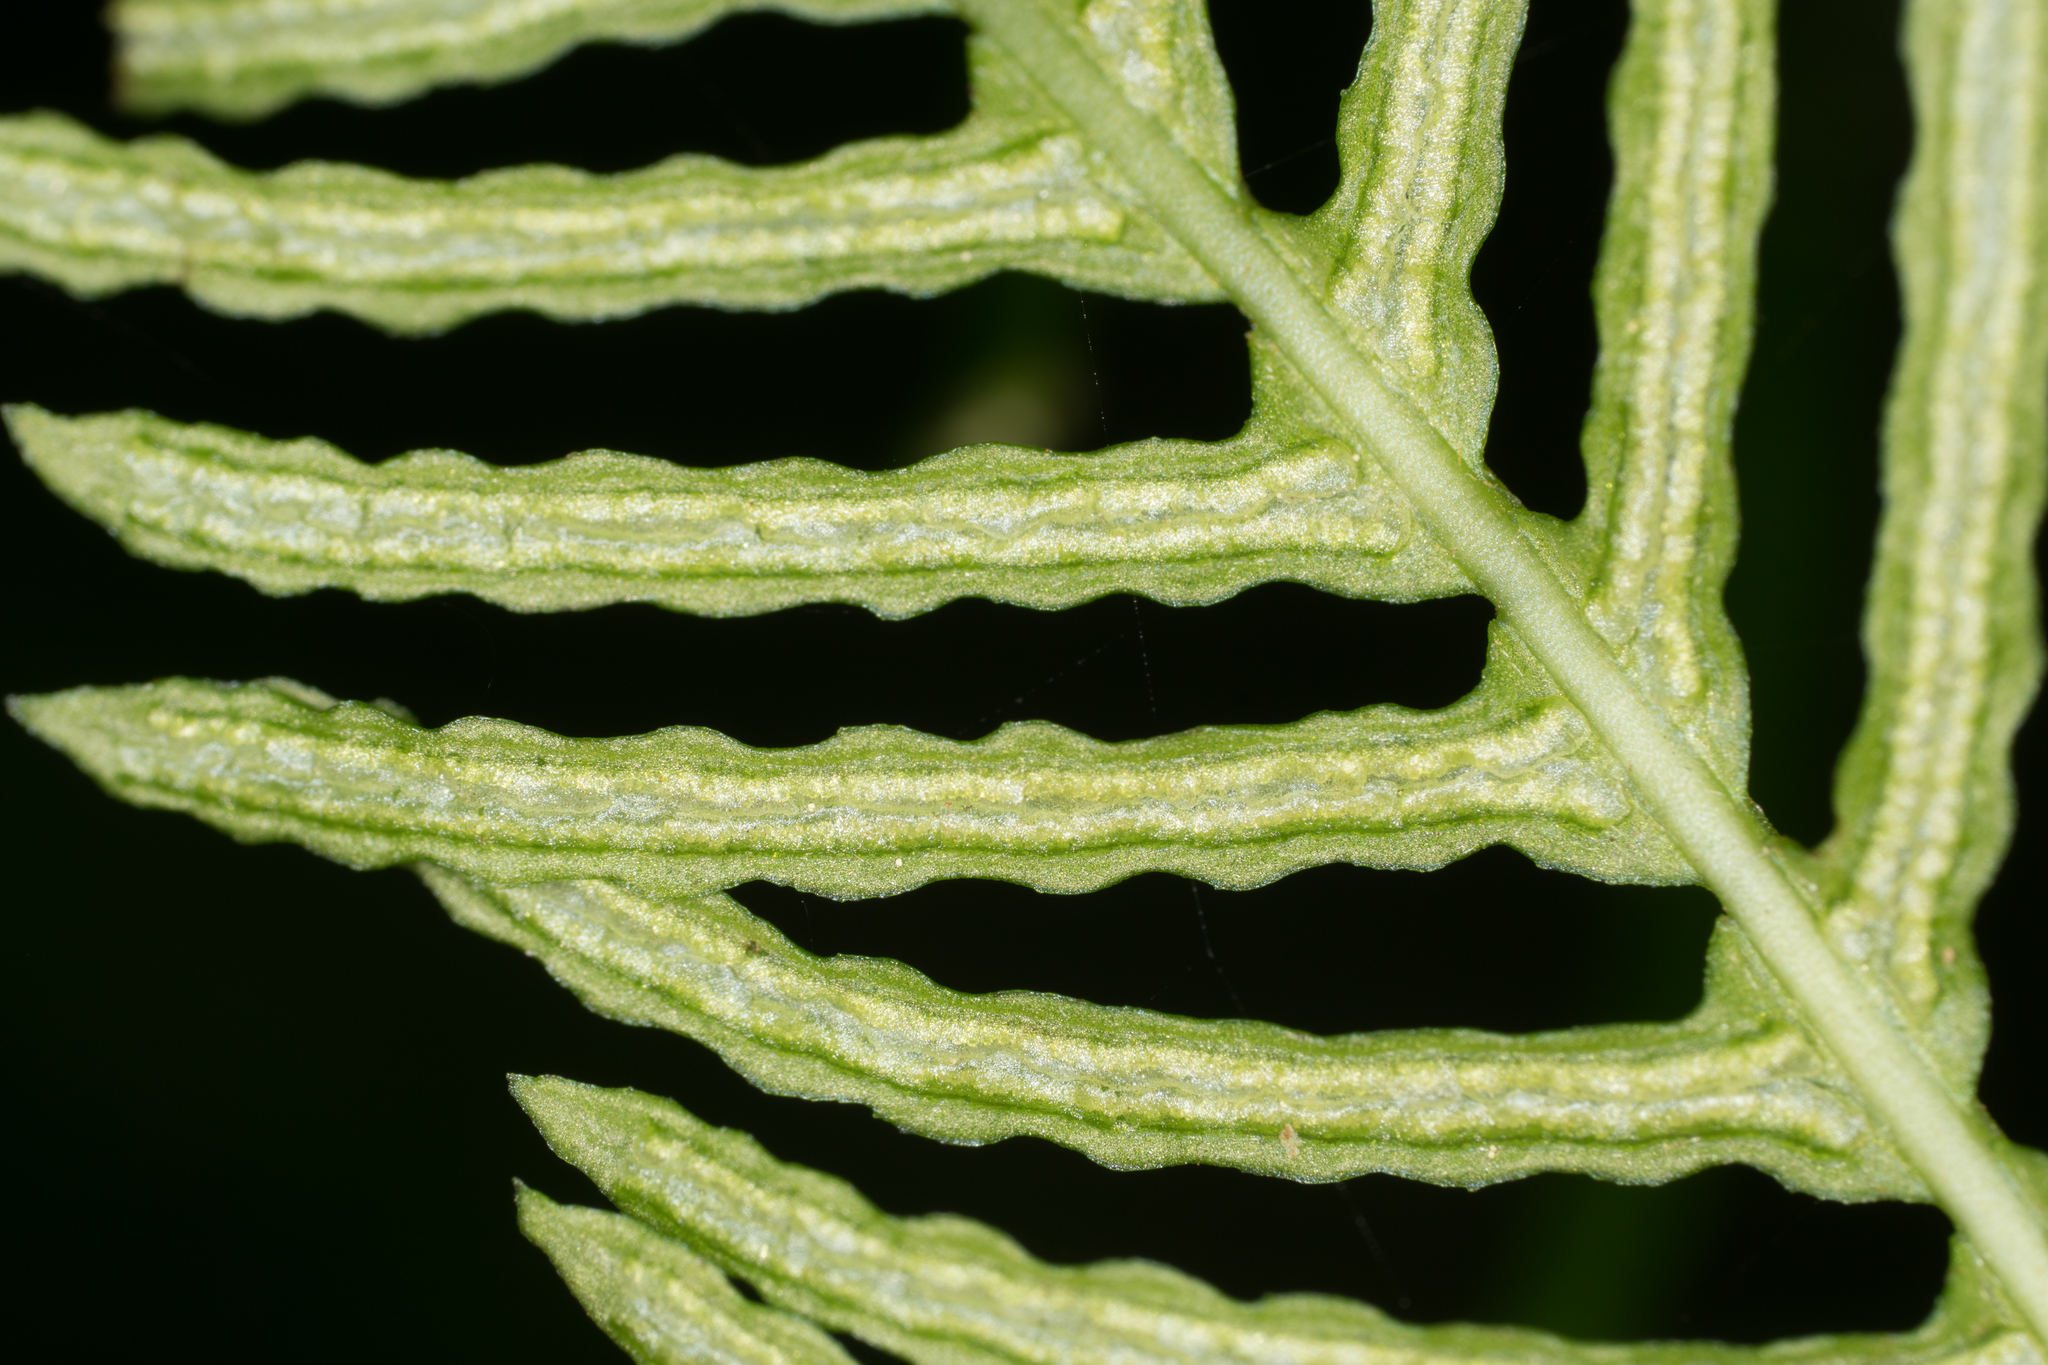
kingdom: Plantae
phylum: Tracheophyta
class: Polypodiopsida
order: Polypodiales
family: Blechnaceae
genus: Struthiopteris
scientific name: Struthiopteris spicant
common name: Deer fern
